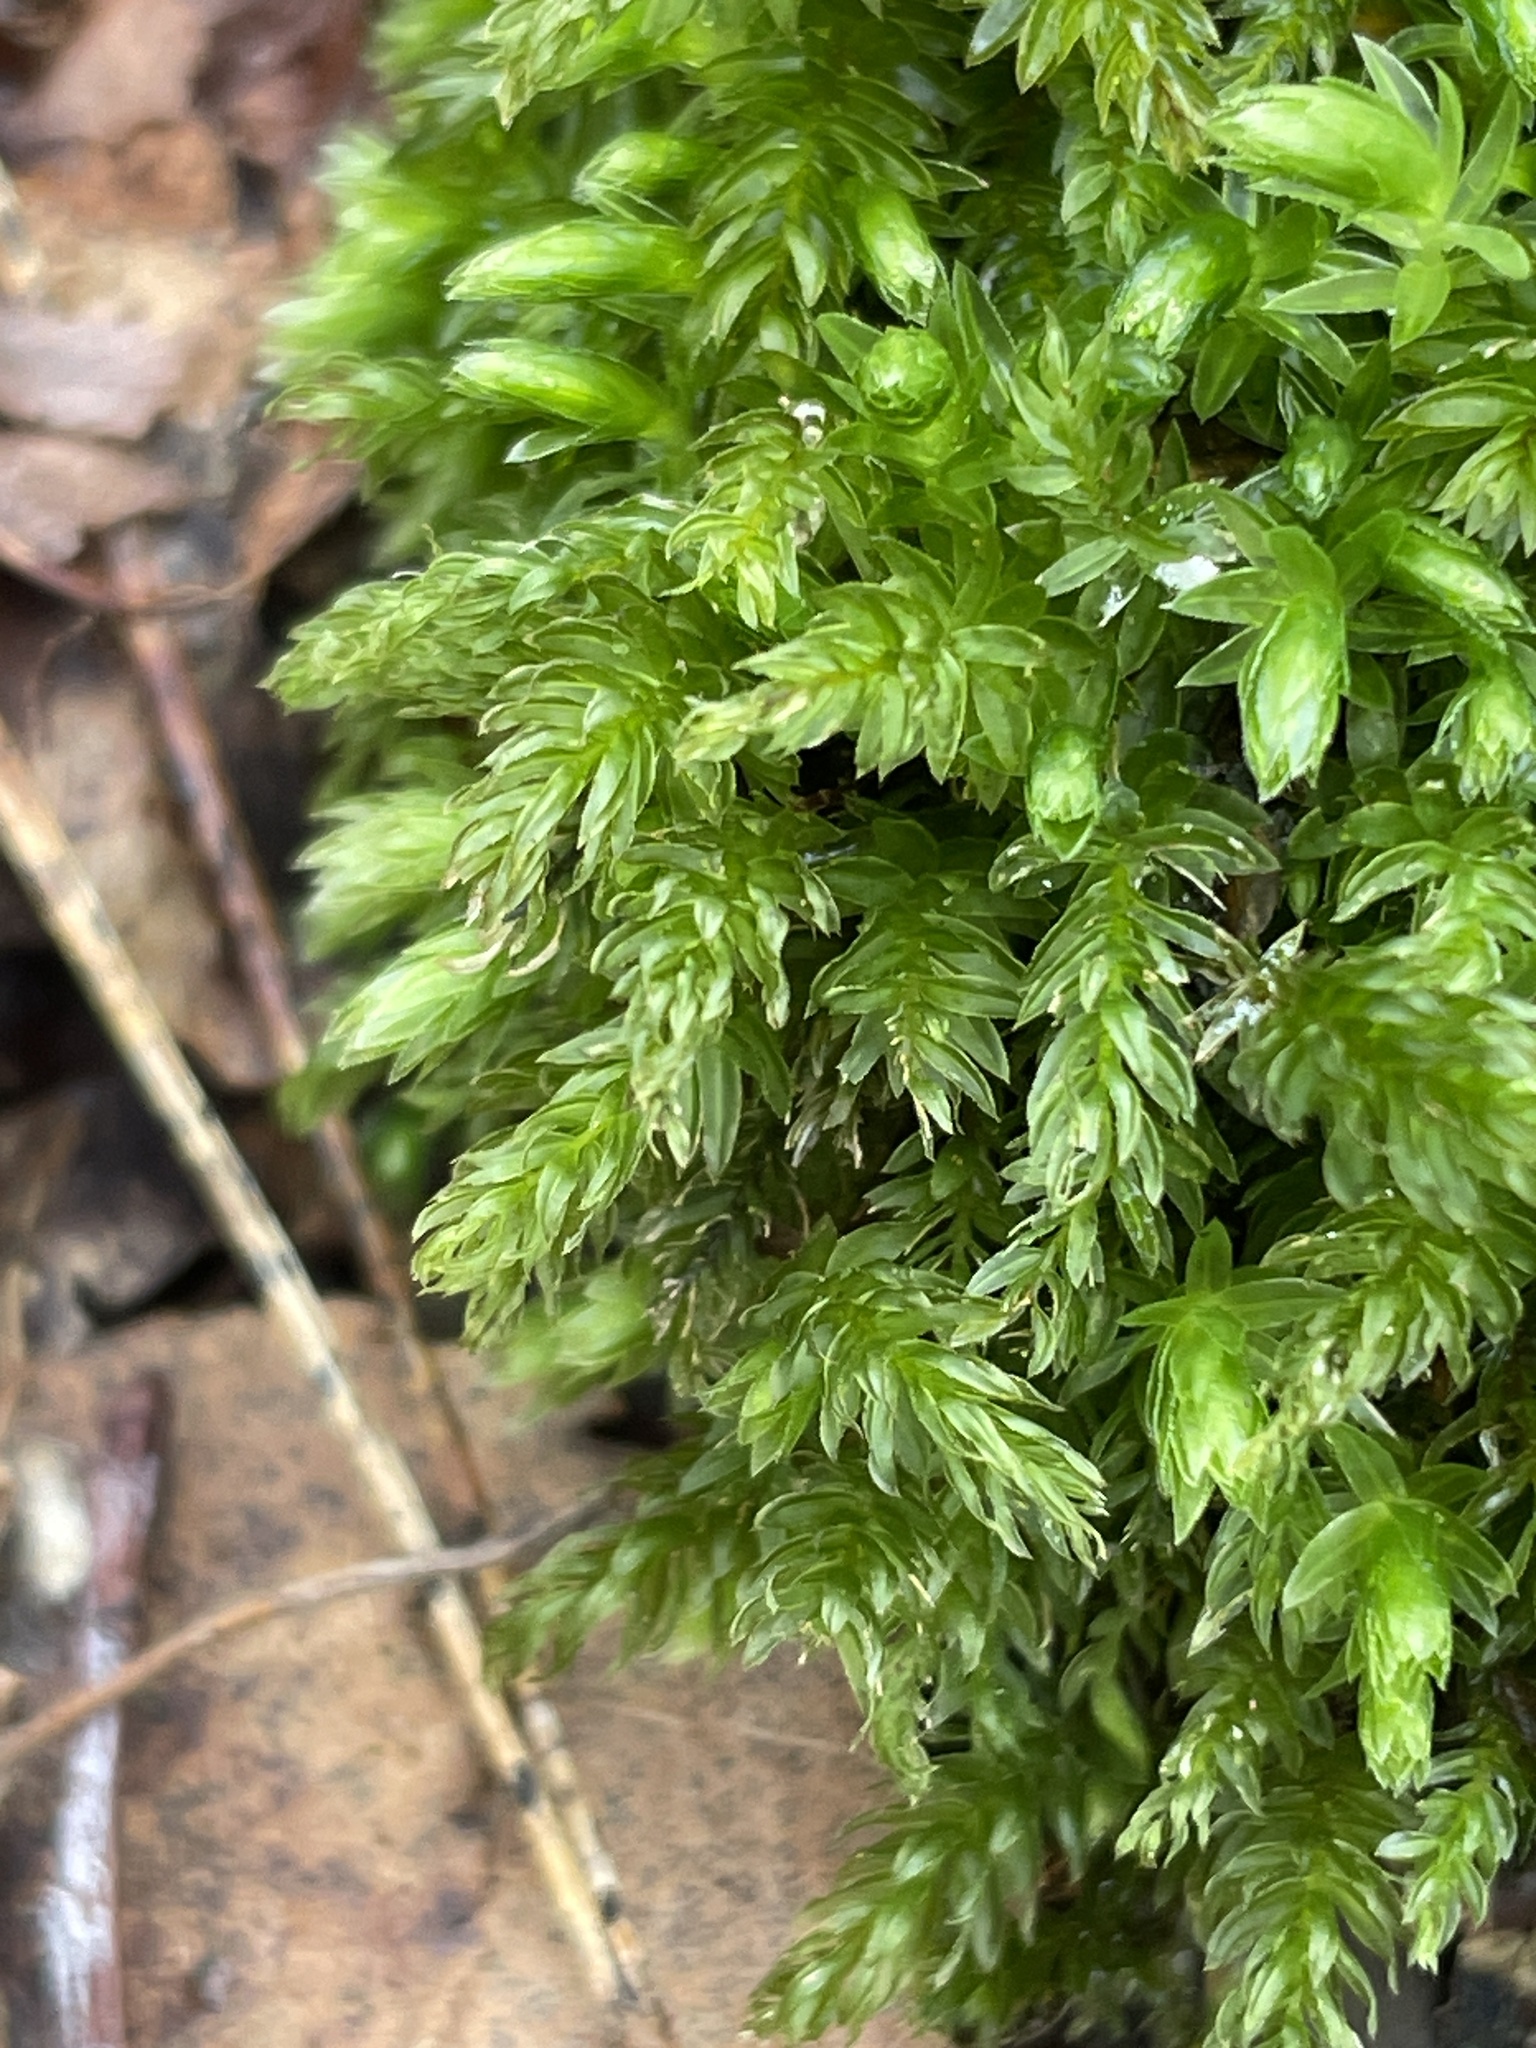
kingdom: Plantae
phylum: Bryophyta
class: Bryopsida
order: Bryales
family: Mniaceae
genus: Mnium
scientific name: Mnium hornum
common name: Swan's-neck leafy moss
